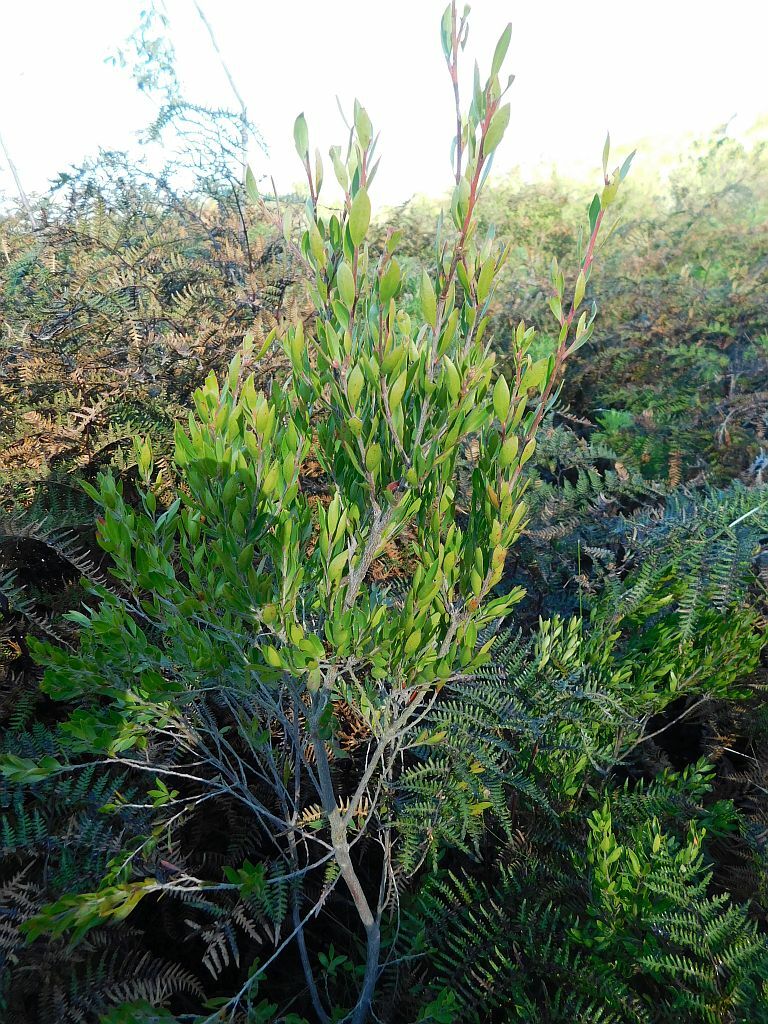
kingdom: Plantae
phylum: Tracheophyta
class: Magnoliopsida
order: Ericales
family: Ebenaceae
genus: Diospyros
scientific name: Diospyros glabra
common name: Fynbos star apple
